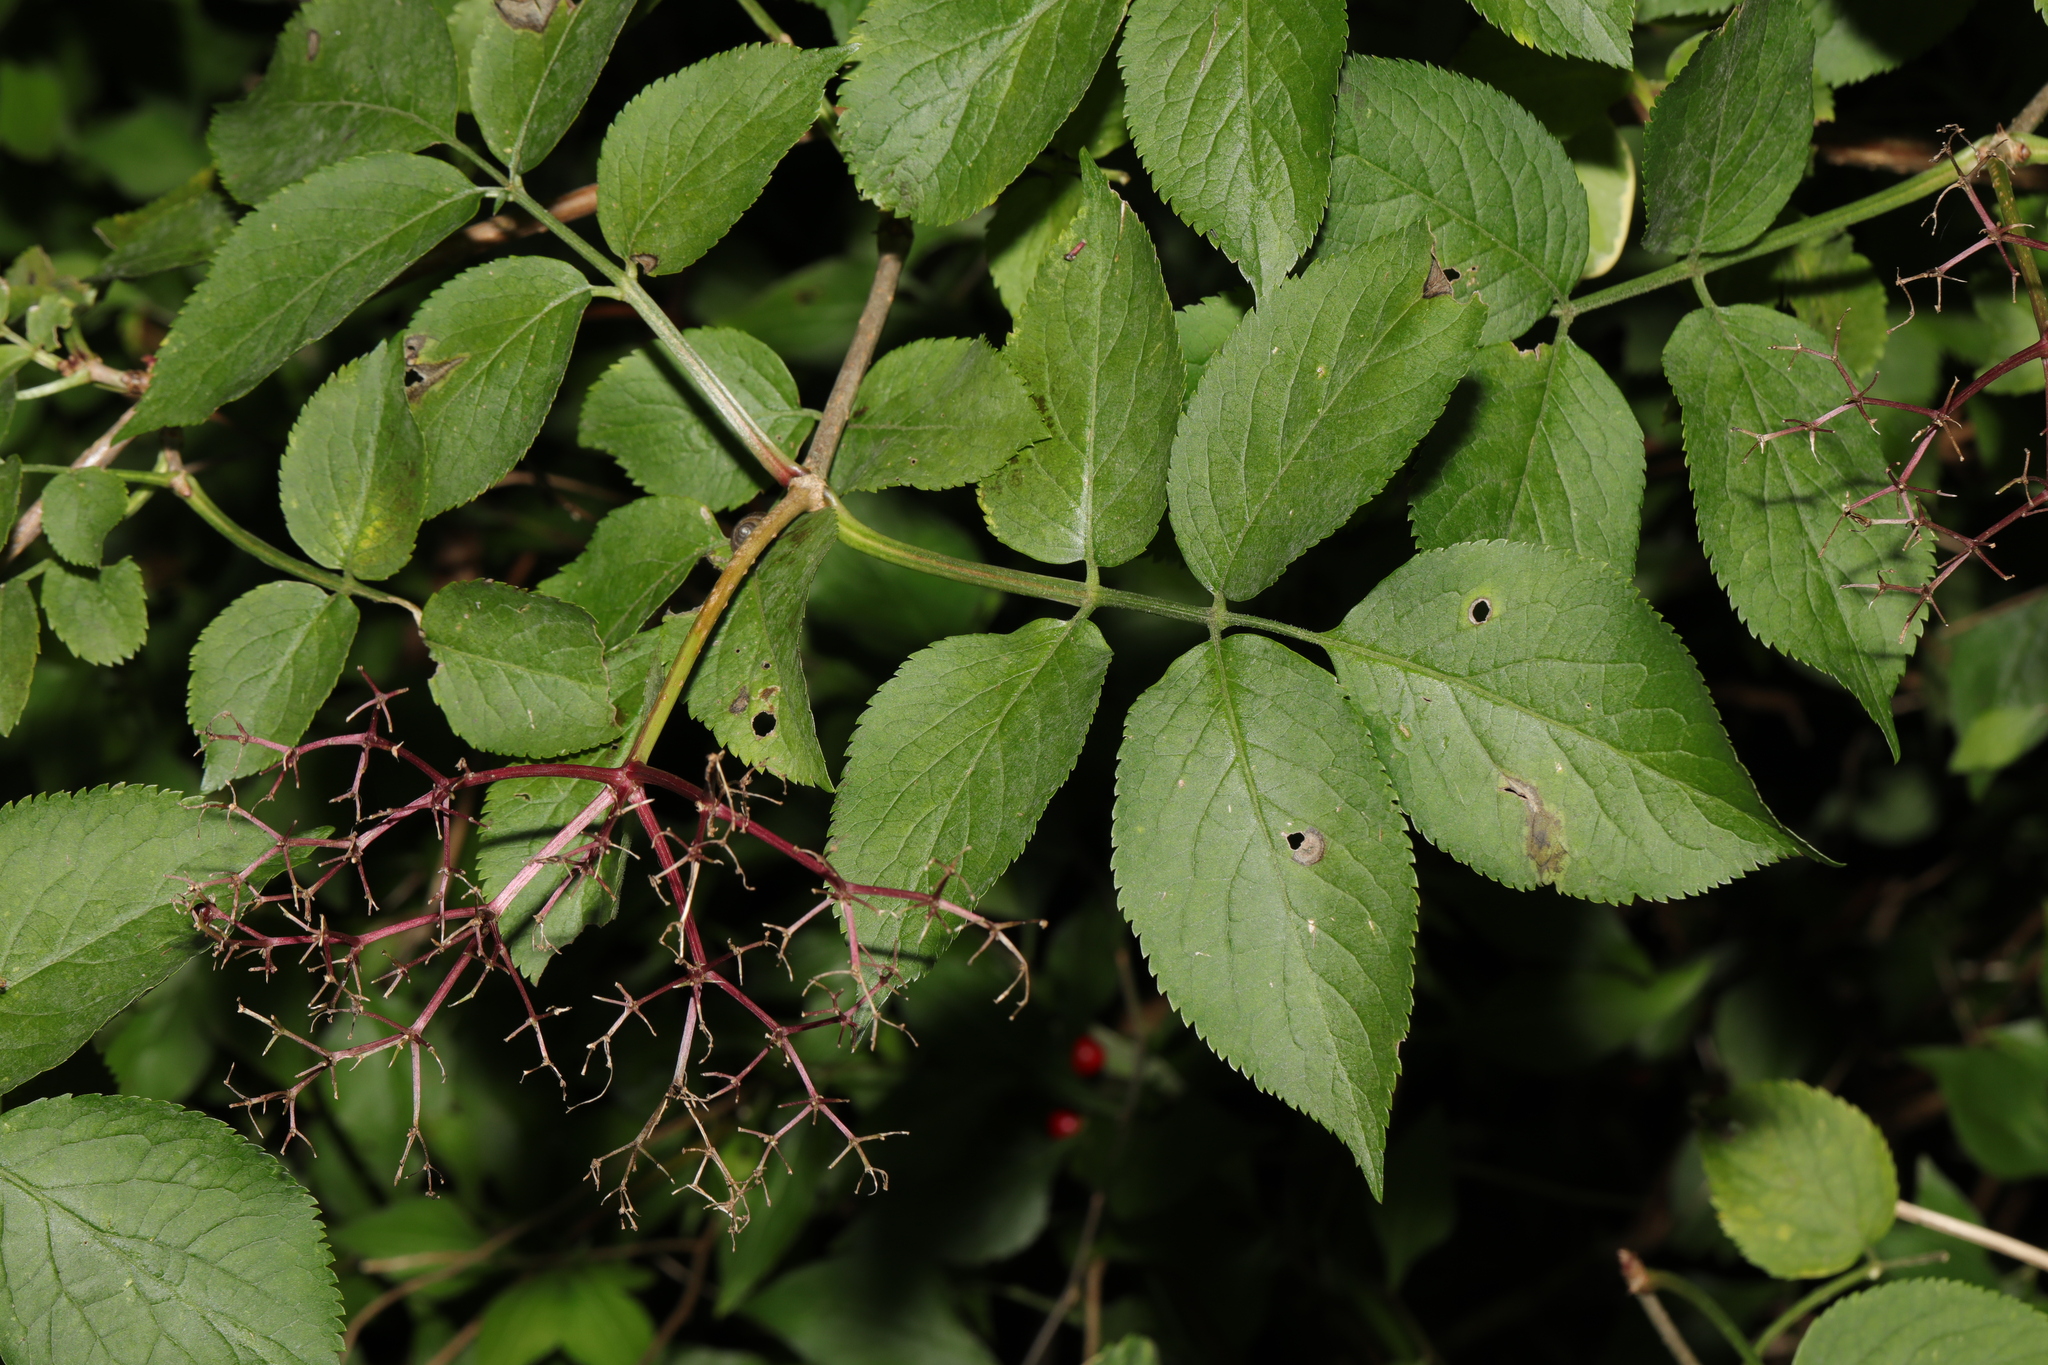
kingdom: Plantae
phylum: Tracheophyta
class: Magnoliopsida
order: Dipsacales
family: Viburnaceae
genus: Sambucus
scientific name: Sambucus nigra
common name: Elder
